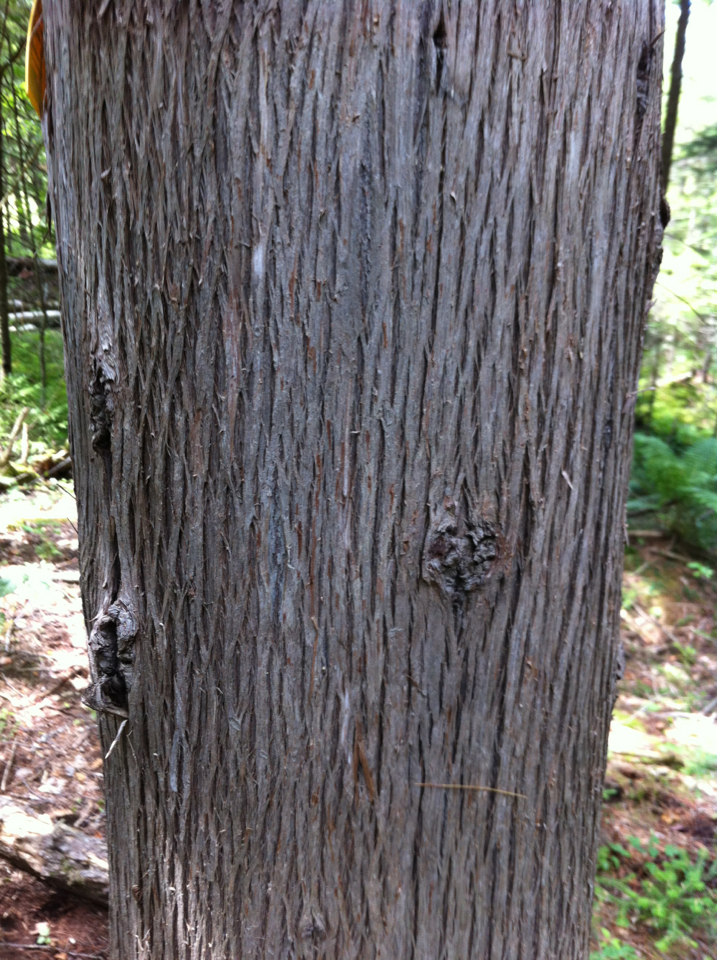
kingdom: Plantae
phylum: Tracheophyta
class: Pinopsida
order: Pinales
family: Cupressaceae
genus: Thuja
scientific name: Thuja occidentalis
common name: Northern white-cedar
